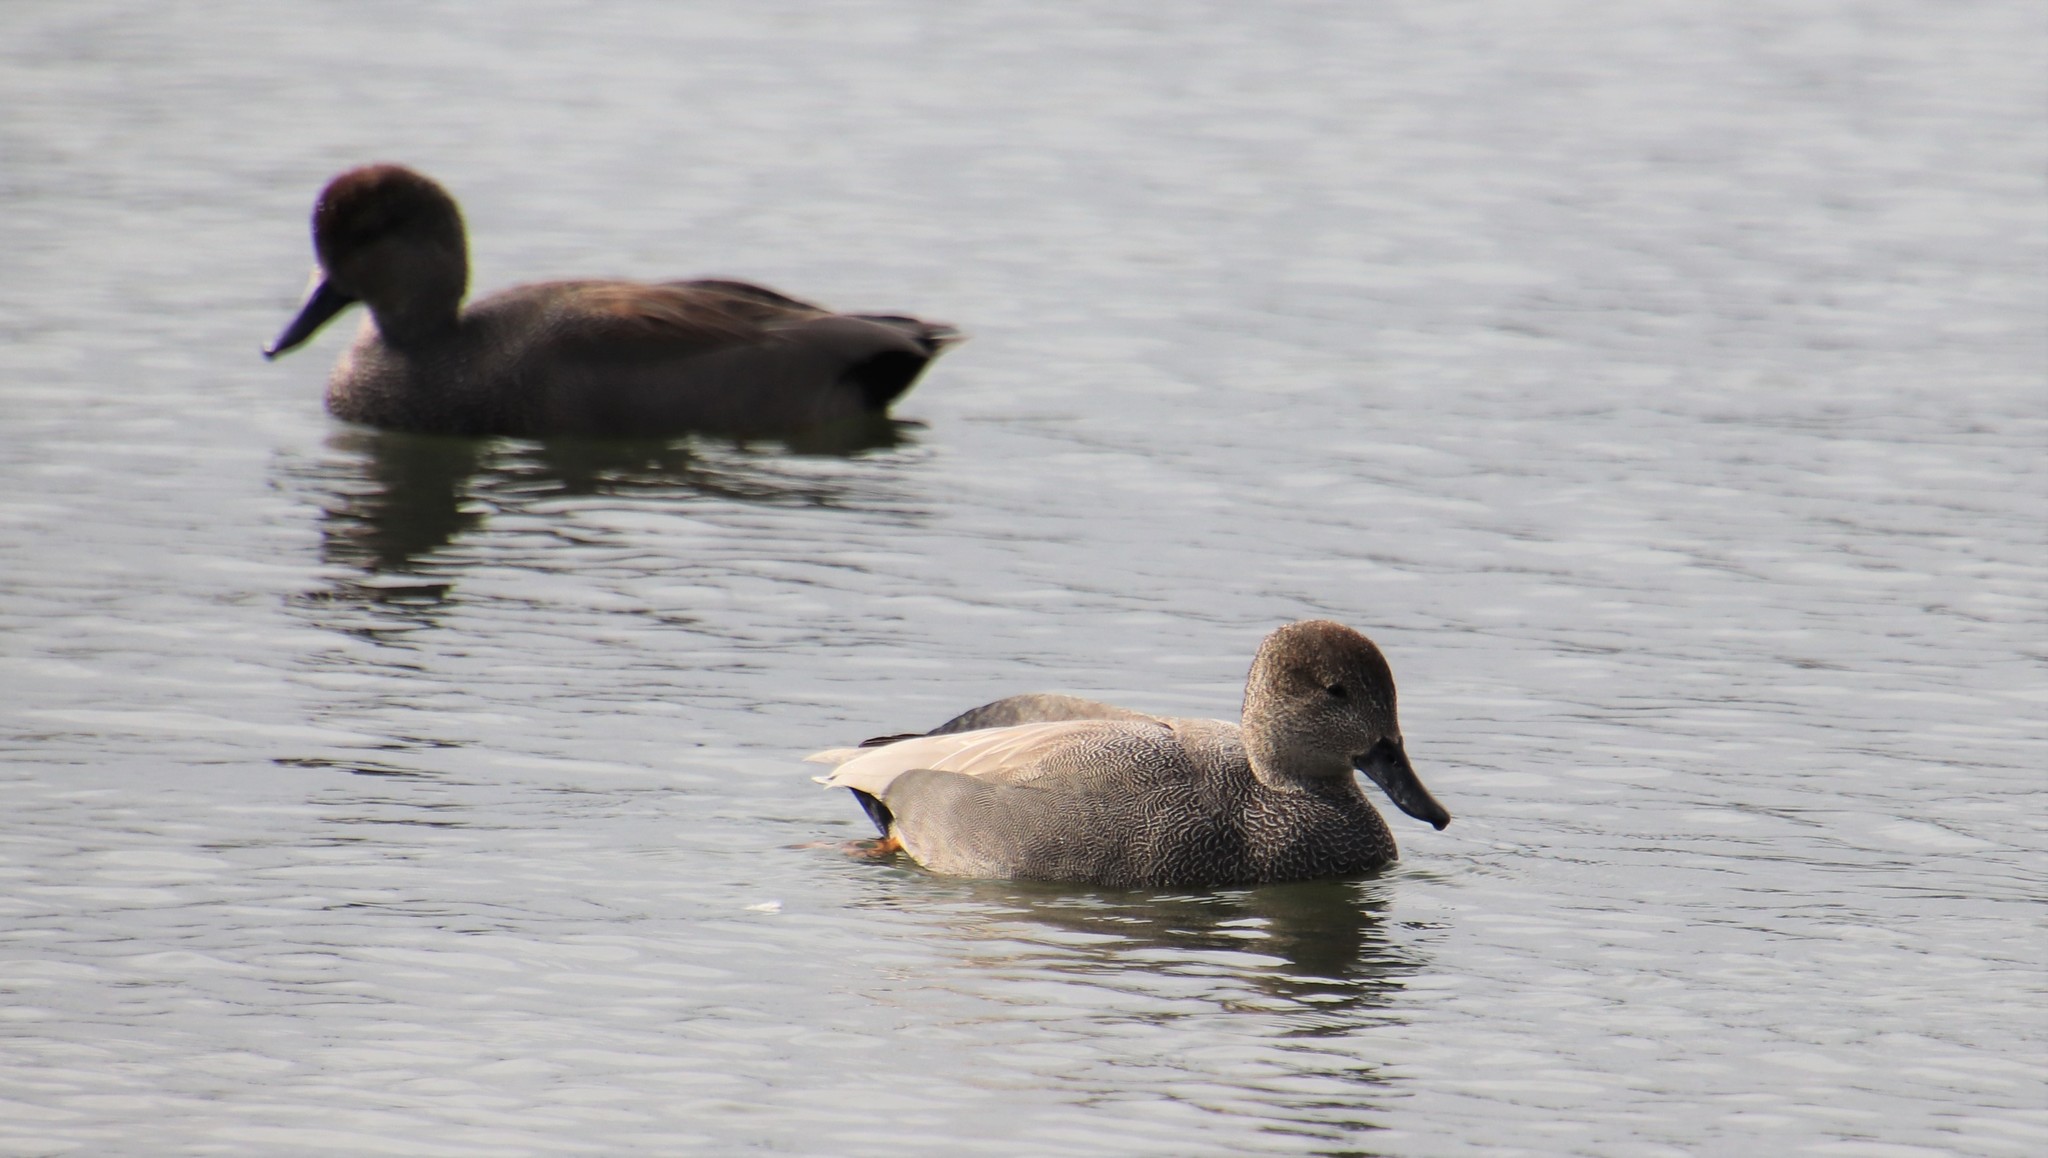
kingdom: Animalia
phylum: Chordata
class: Aves
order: Anseriformes
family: Anatidae
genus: Mareca
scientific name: Mareca strepera
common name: Gadwall
